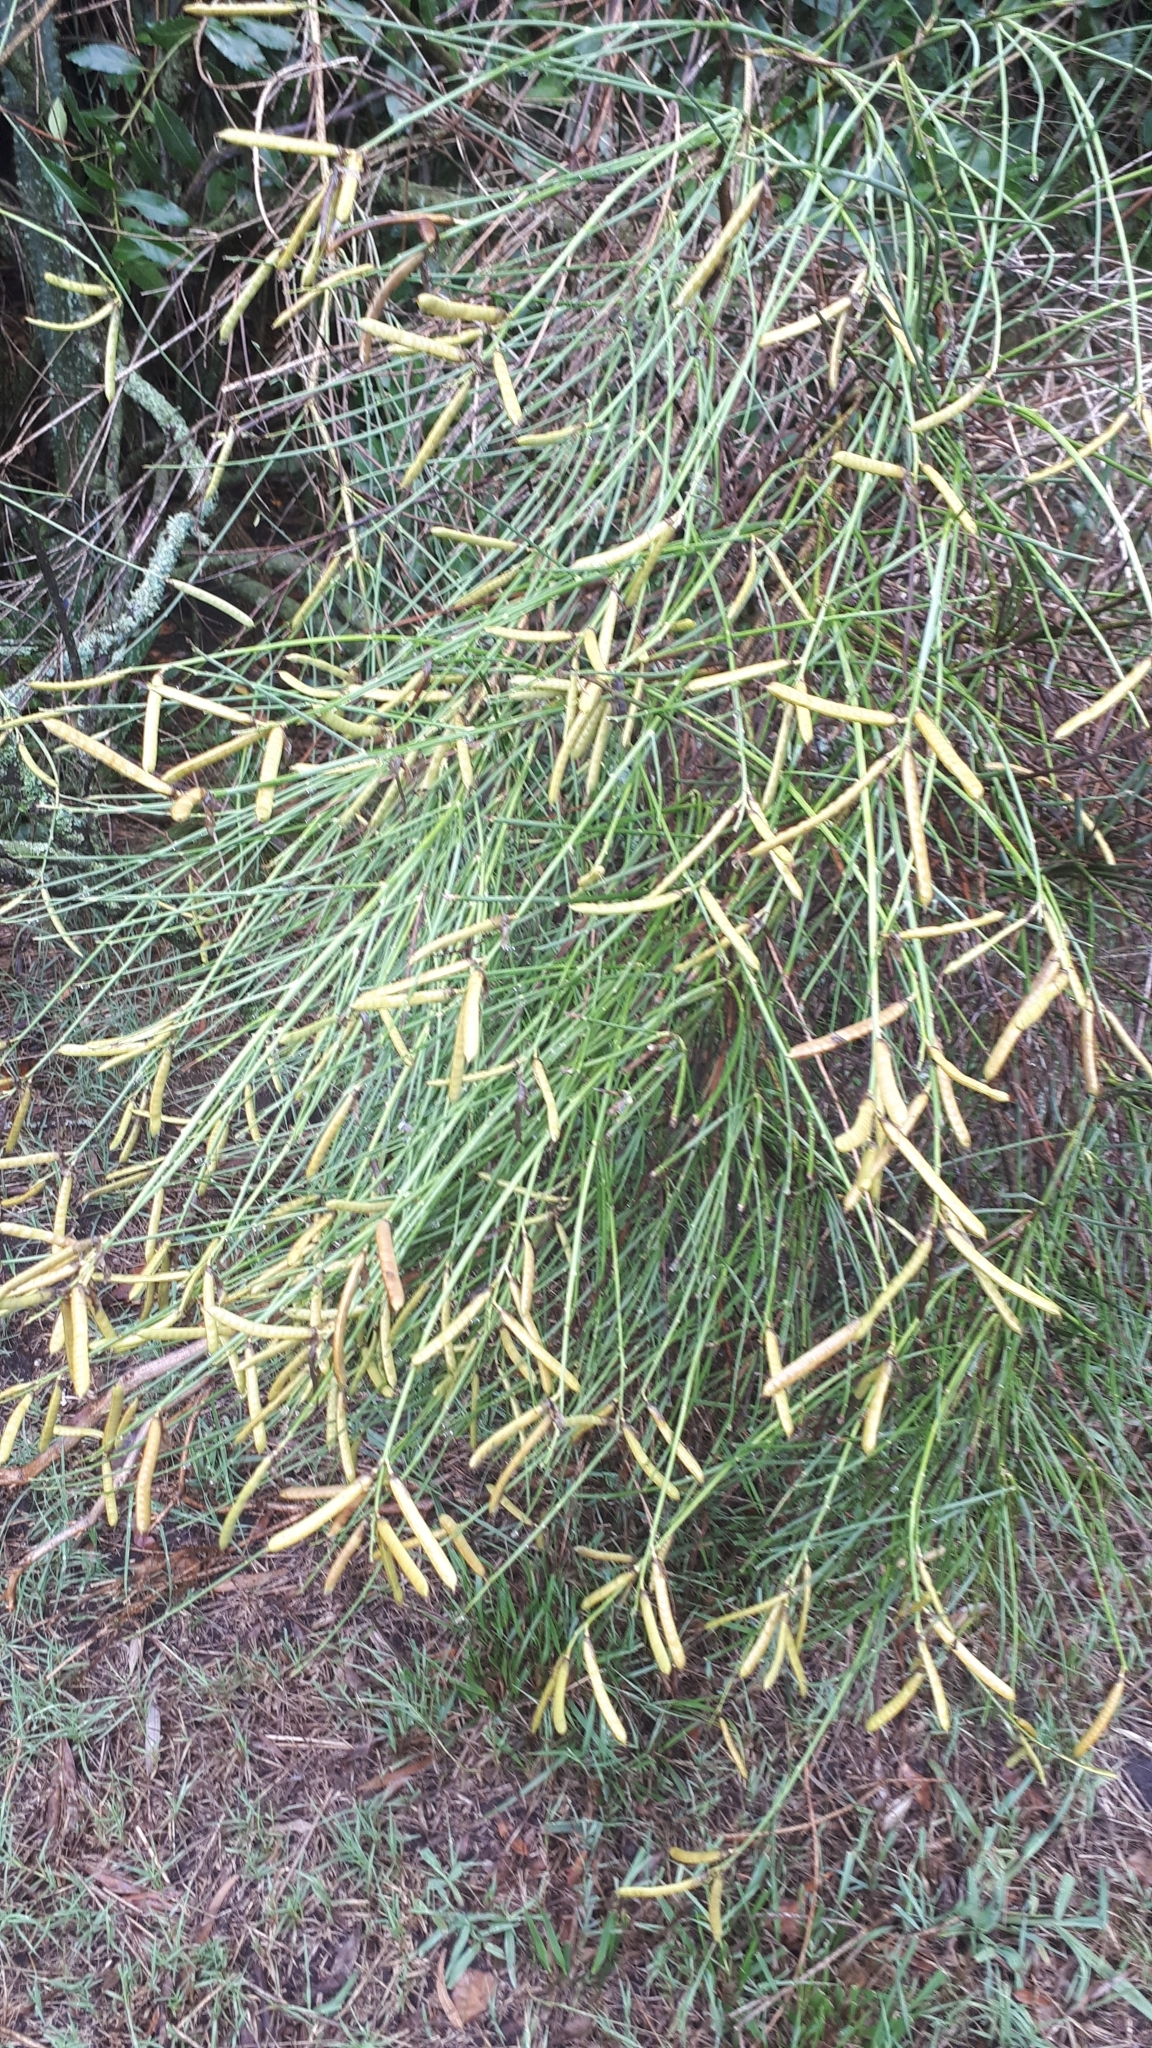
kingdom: Plantae
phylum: Tracheophyta
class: Magnoliopsida
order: Fabales
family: Fabaceae
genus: Spartium
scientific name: Spartium junceum
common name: Spanish broom
